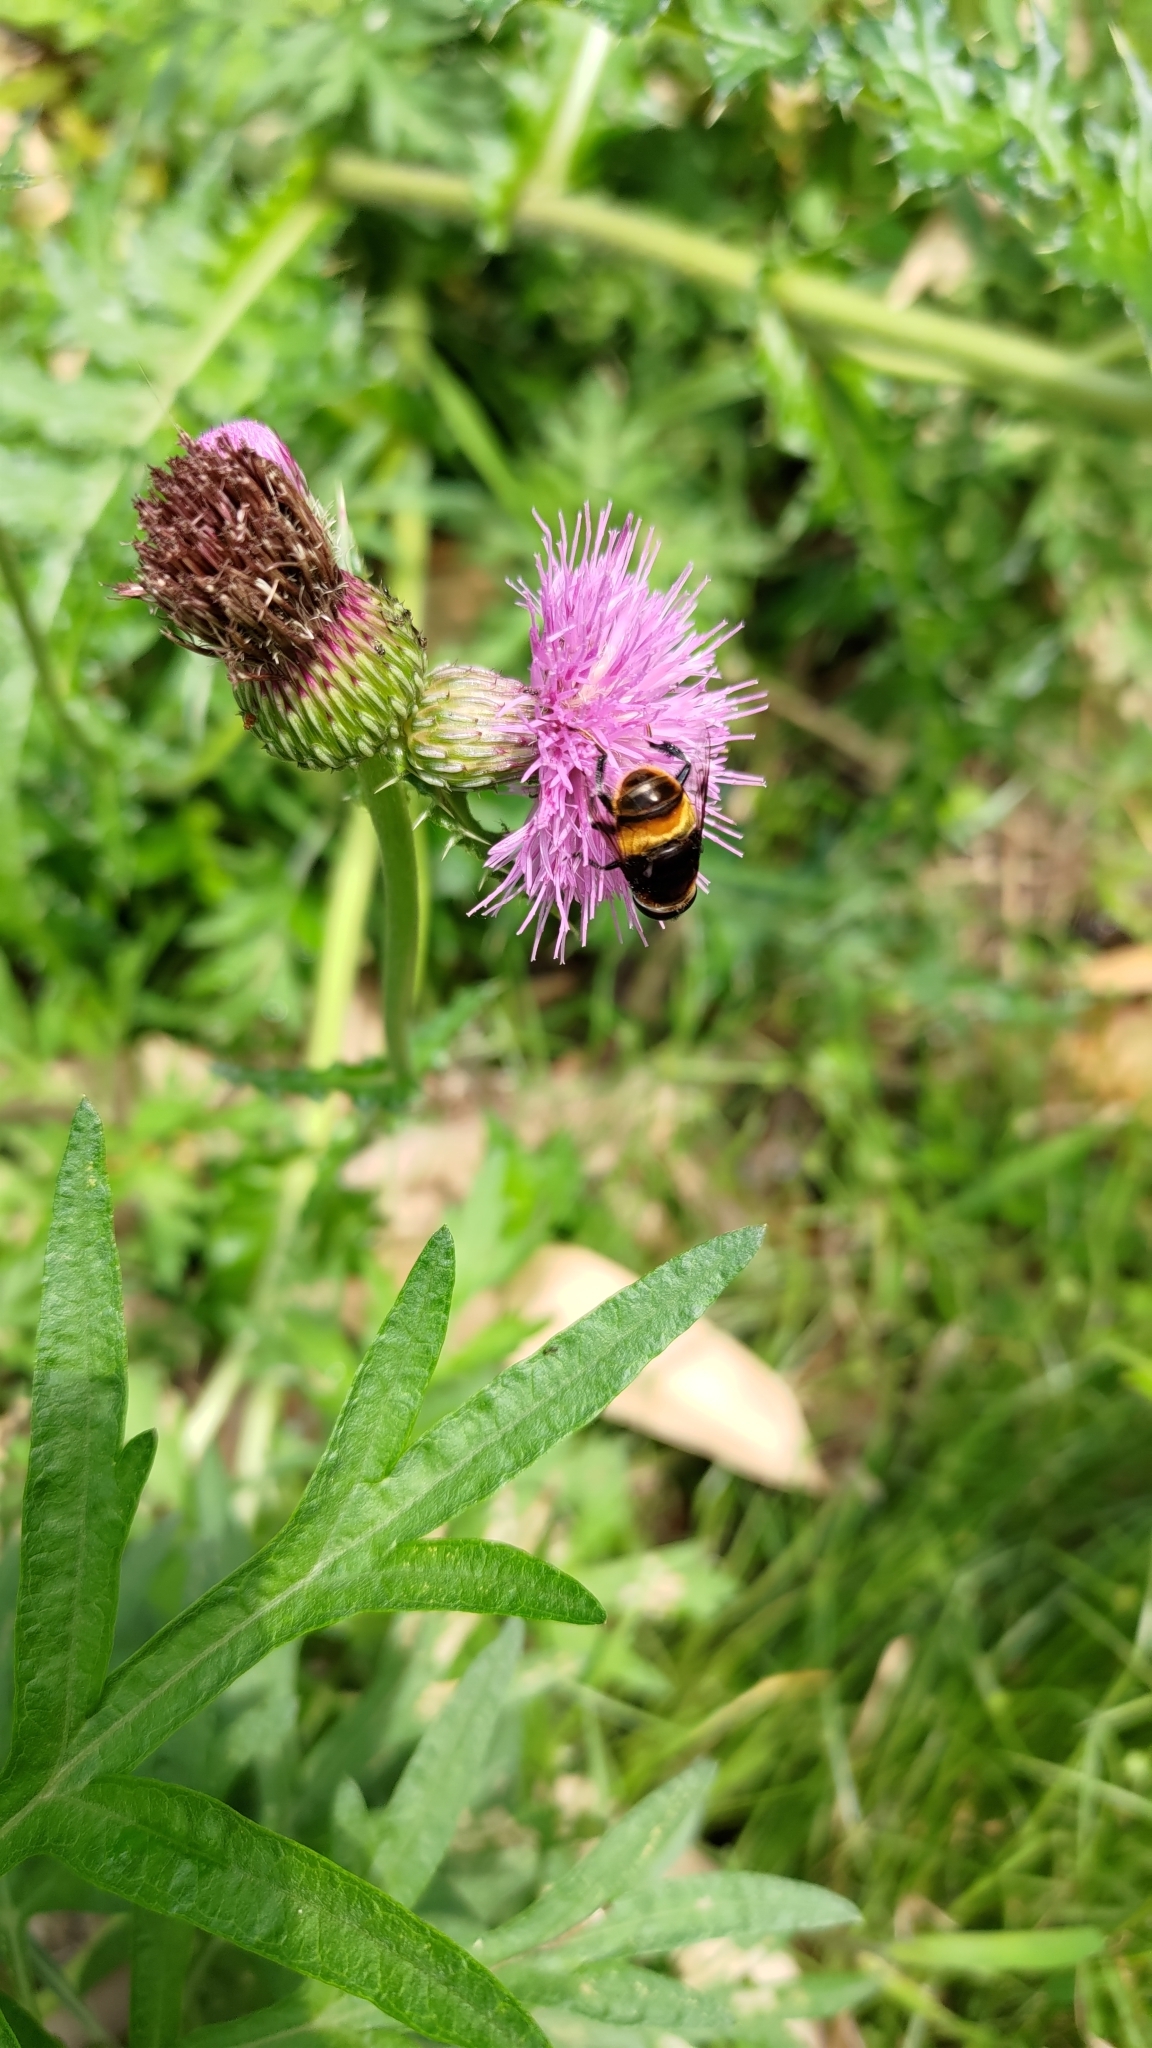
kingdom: Animalia
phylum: Arthropoda
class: Insecta
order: Diptera
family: Syrphidae
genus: Phytomia
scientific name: Phytomia zonata
